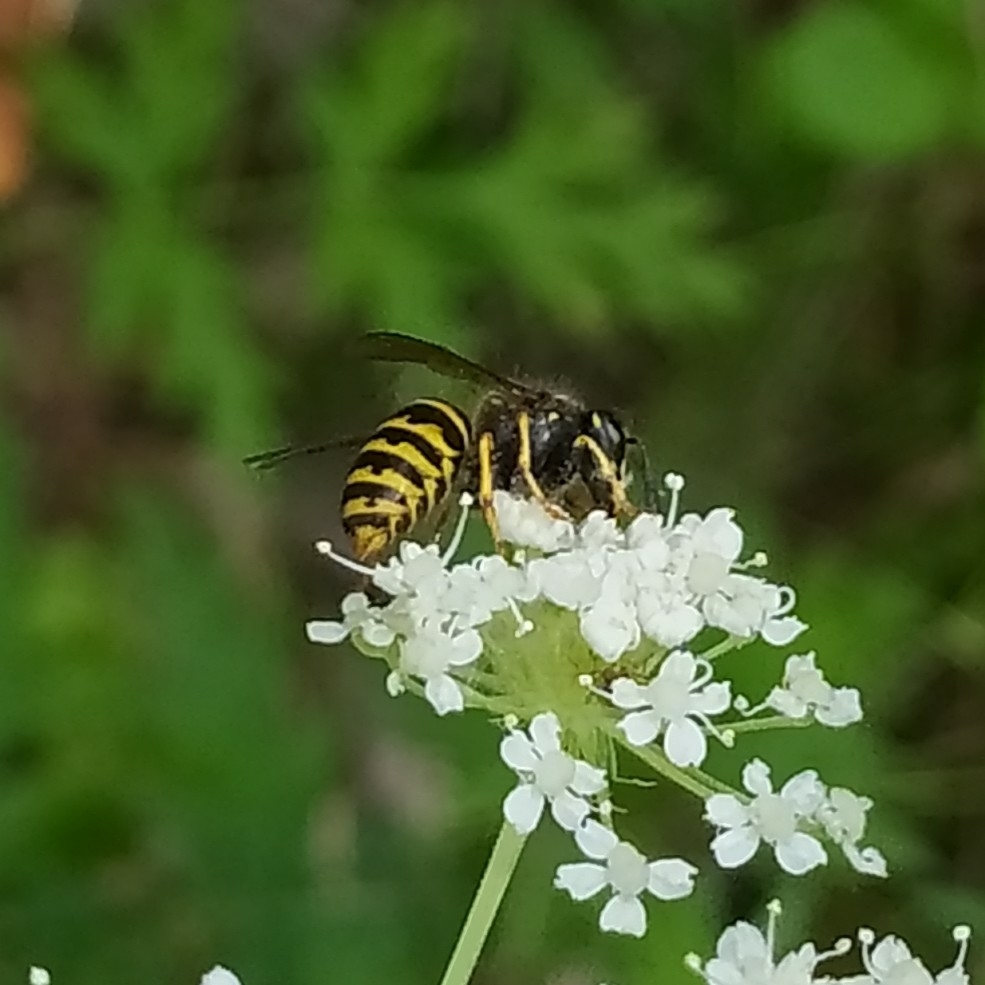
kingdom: Animalia
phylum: Arthropoda
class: Insecta
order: Hymenoptera
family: Vespidae
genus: Dolichovespula
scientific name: Dolichovespula saxonica
